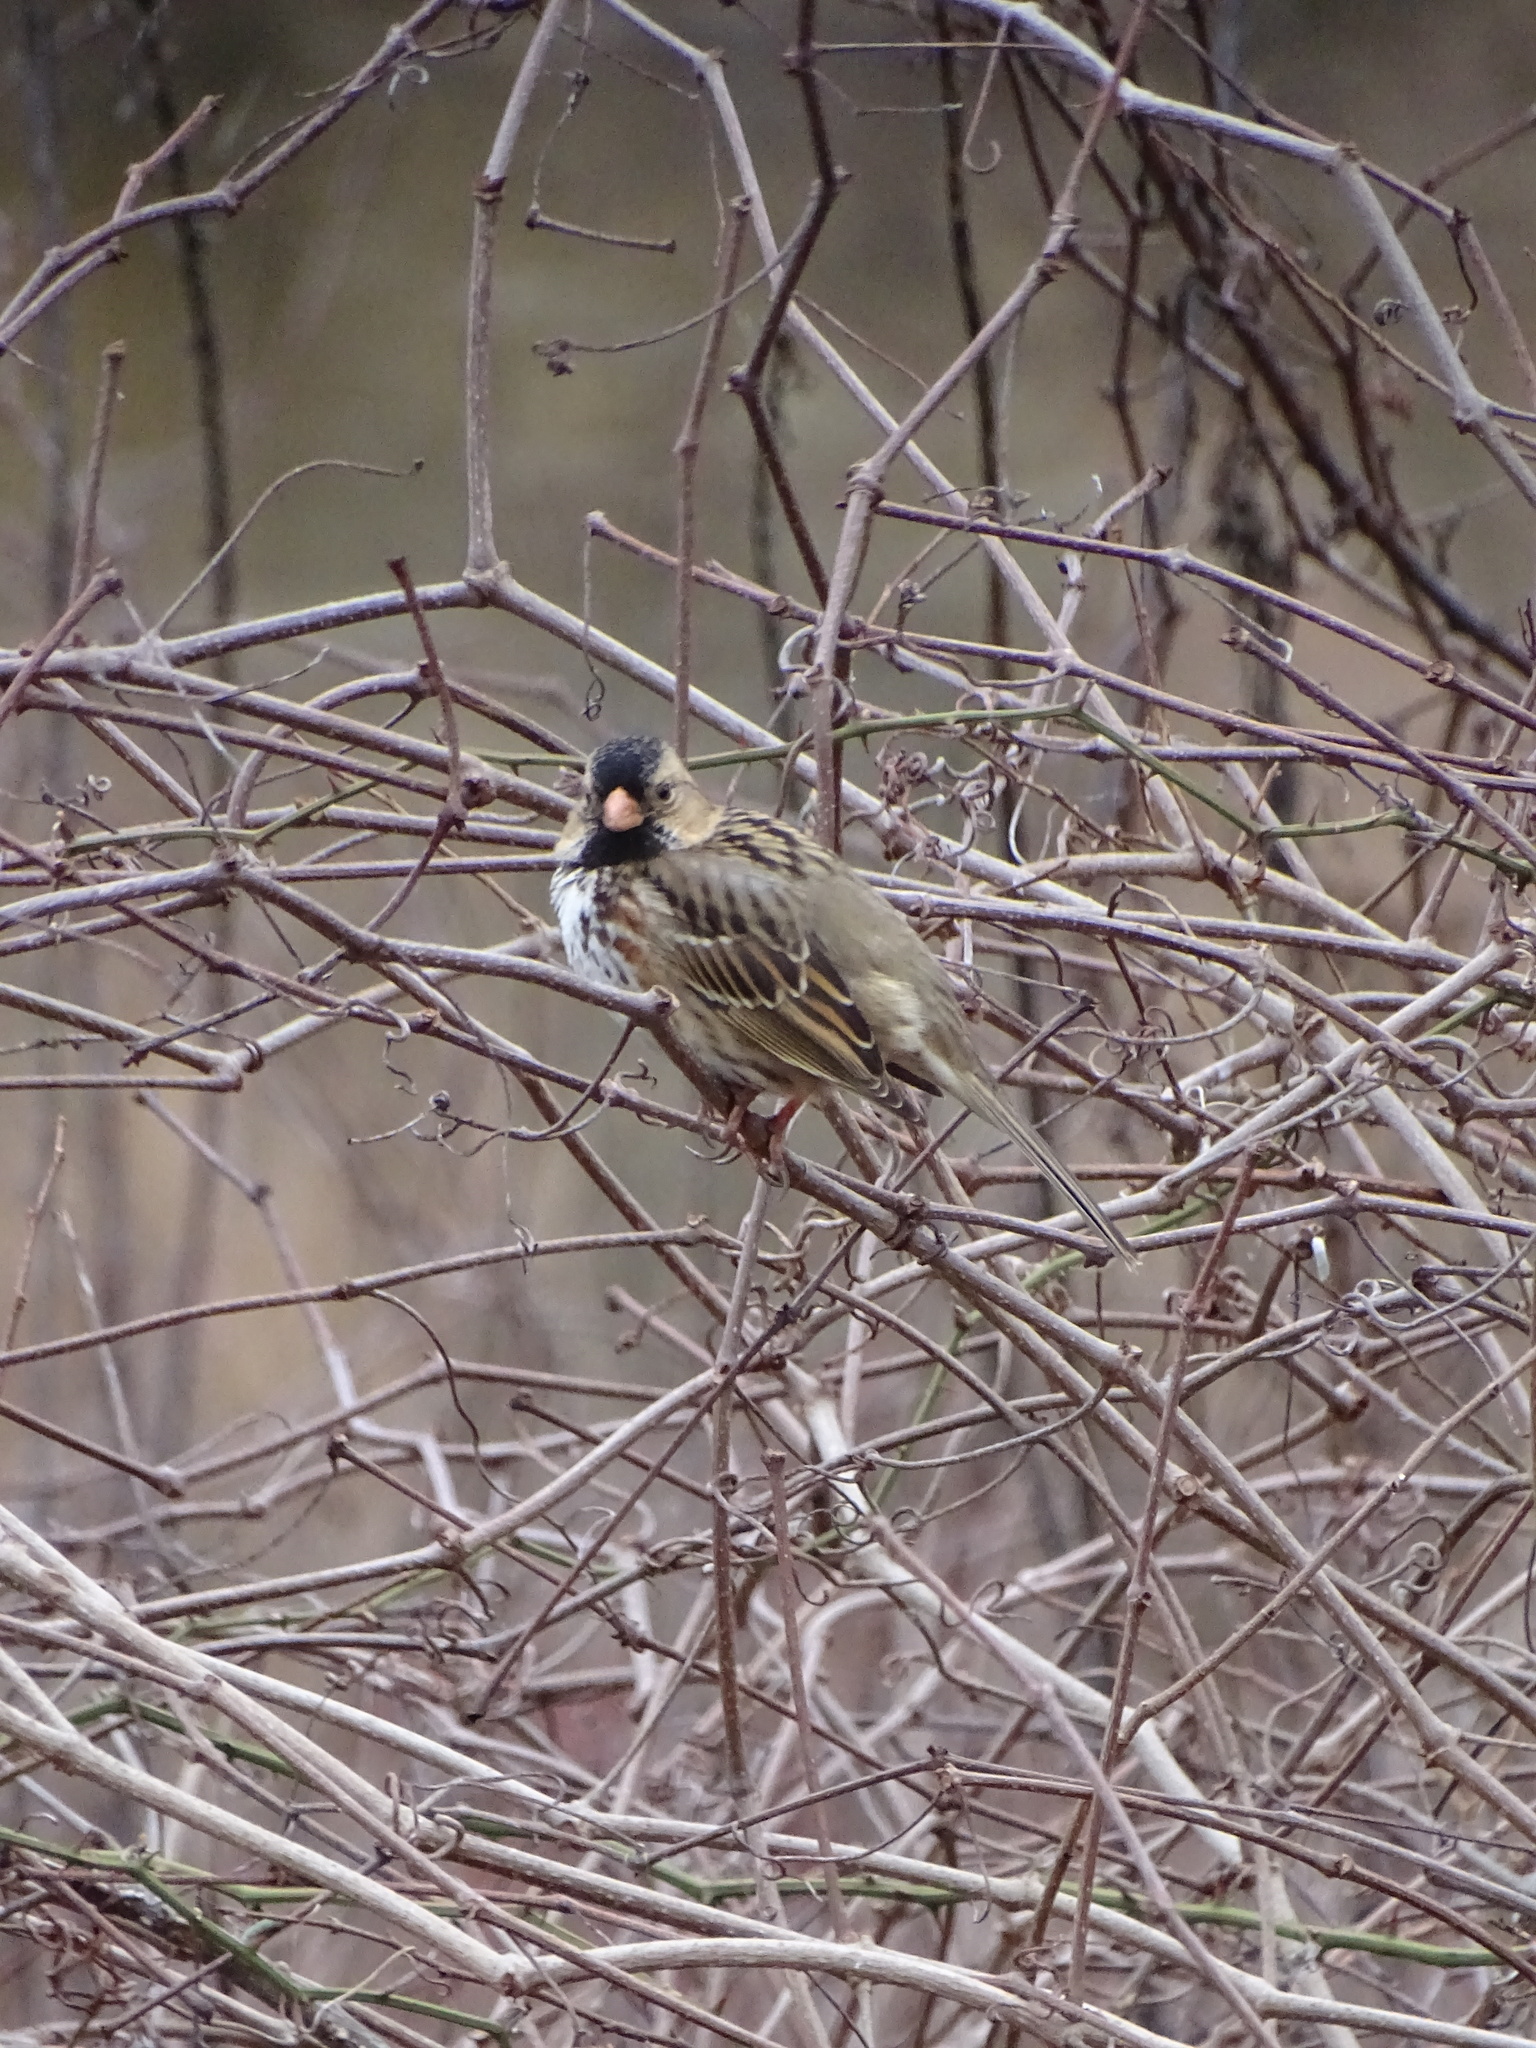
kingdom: Animalia
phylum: Chordata
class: Aves
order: Passeriformes
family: Passerellidae
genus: Zonotrichia
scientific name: Zonotrichia querula
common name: Harris's sparrow
